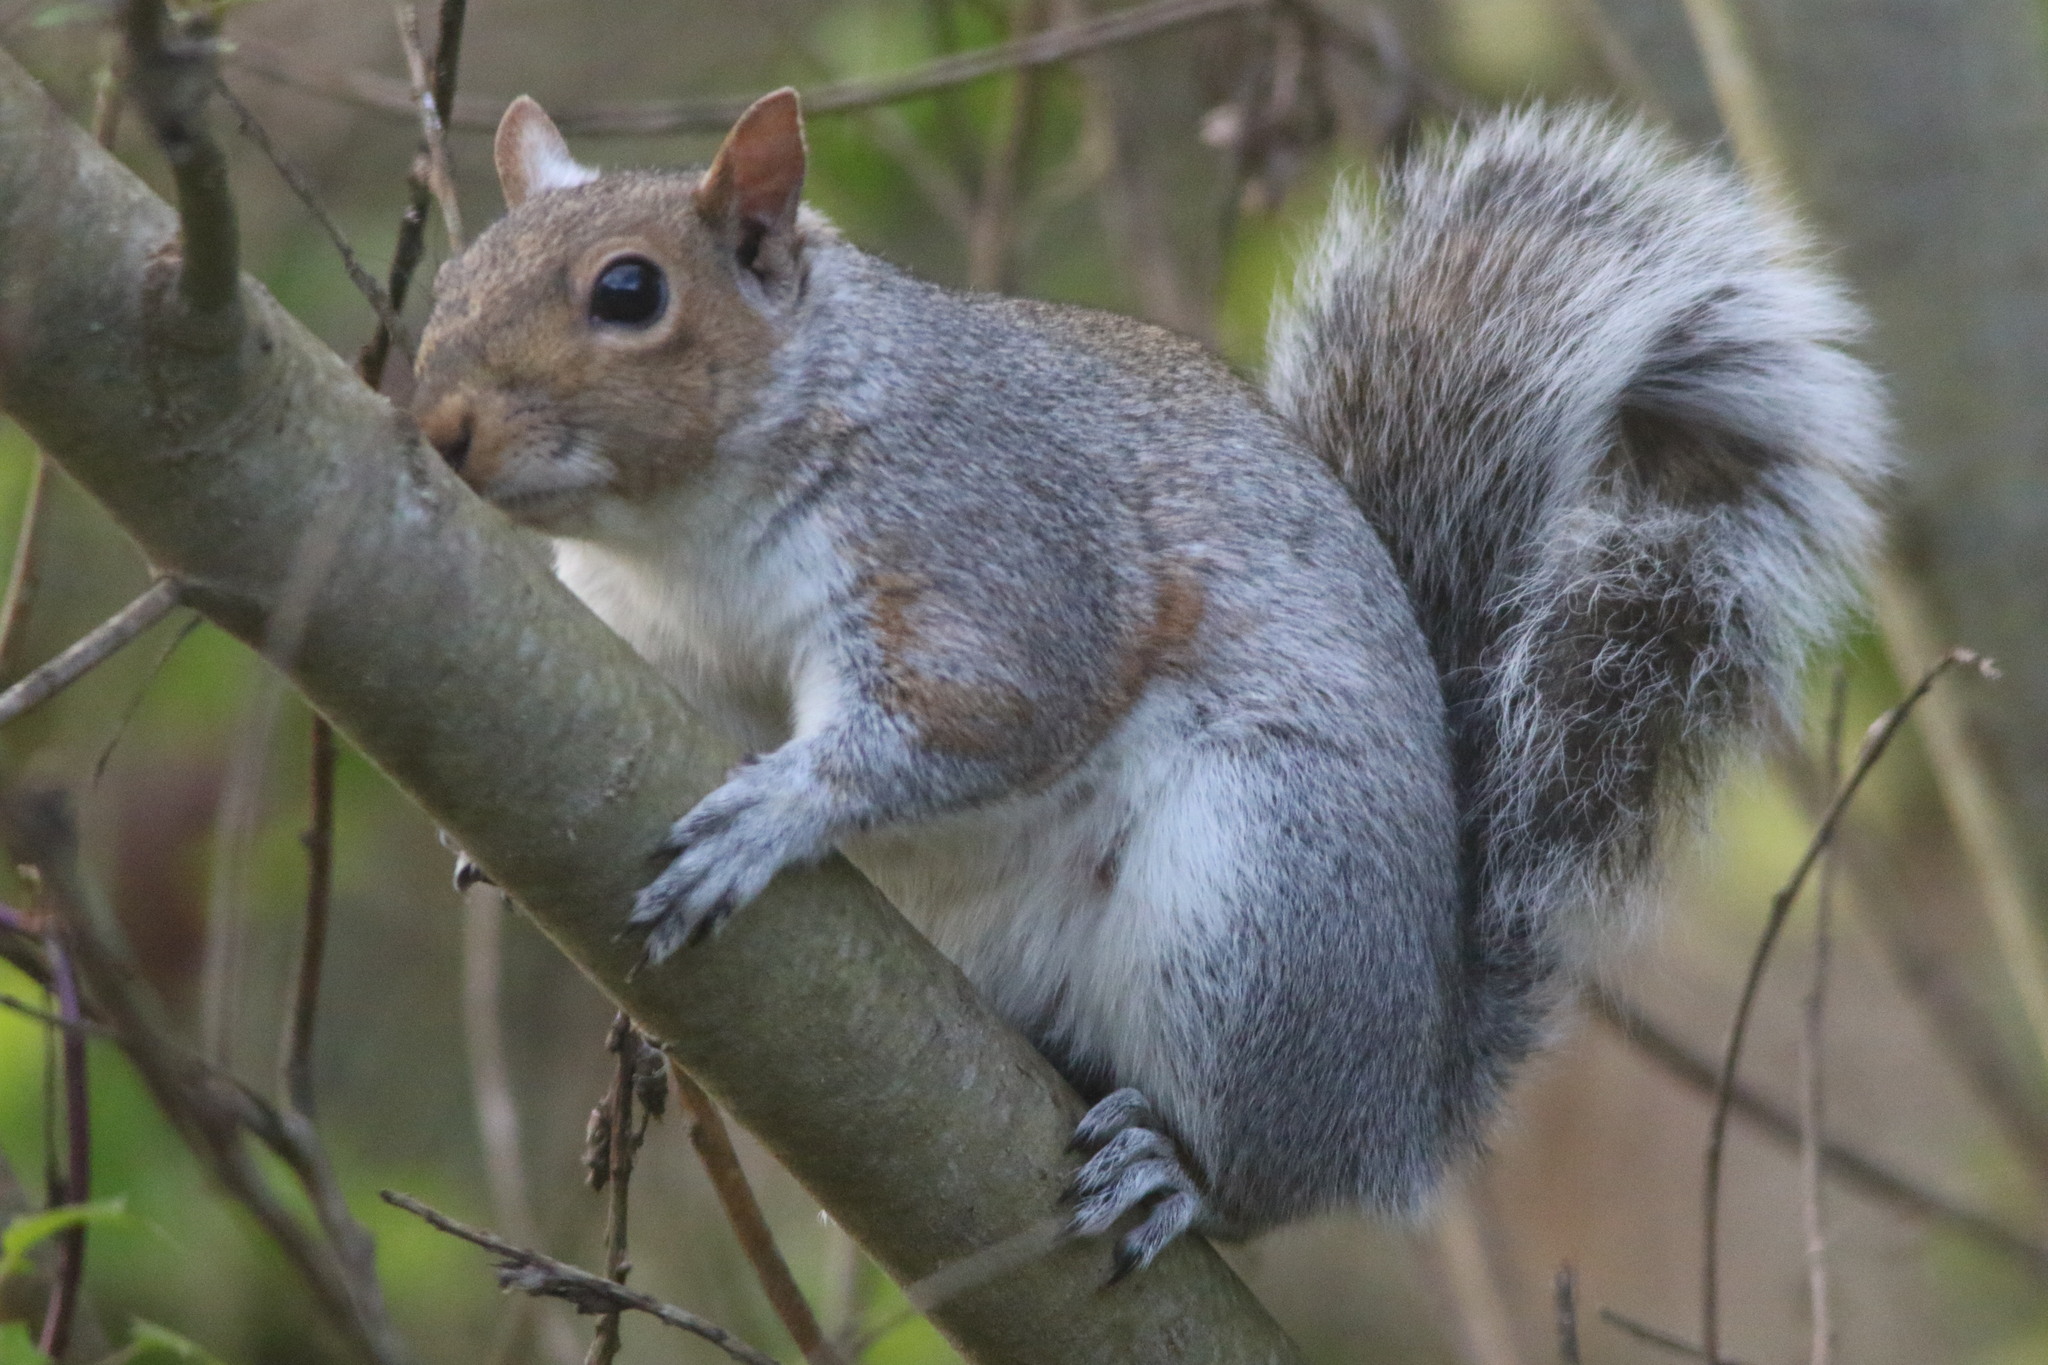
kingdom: Animalia
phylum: Chordata
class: Mammalia
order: Rodentia
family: Sciuridae
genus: Sciurus
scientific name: Sciurus carolinensis
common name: Eastern gray squirrel
